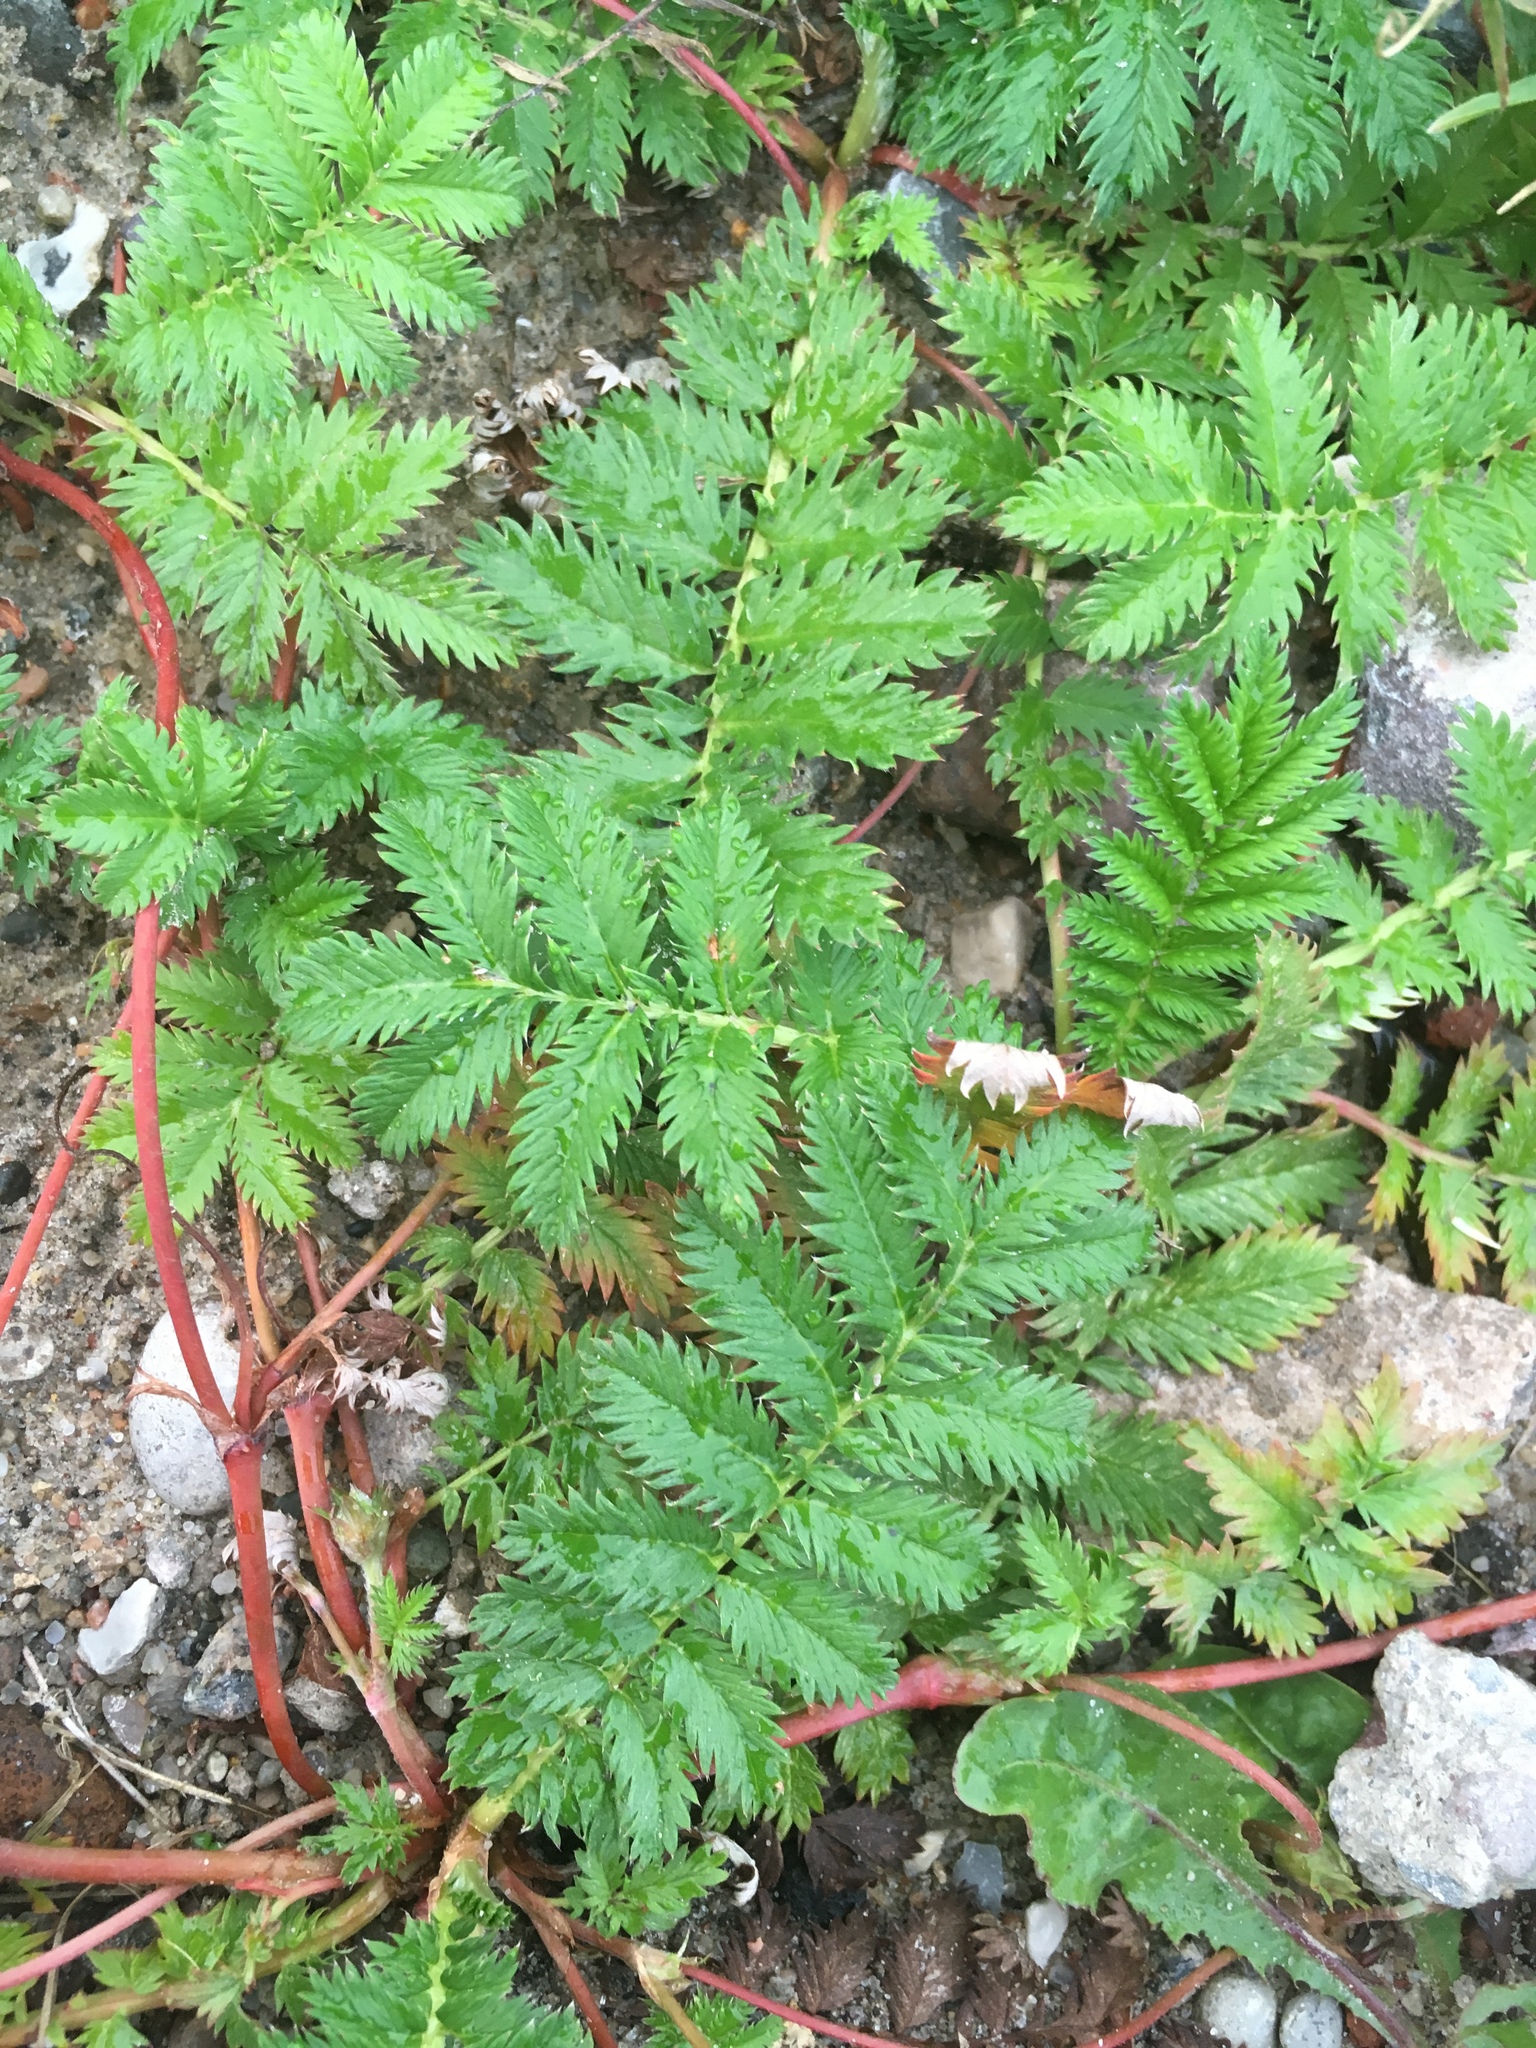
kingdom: Plantae
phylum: Tracheophyta
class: Magnoliopsida
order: Rosales
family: Rosaceae
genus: Argentina
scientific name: Argentina anserina
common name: Common silverweed
